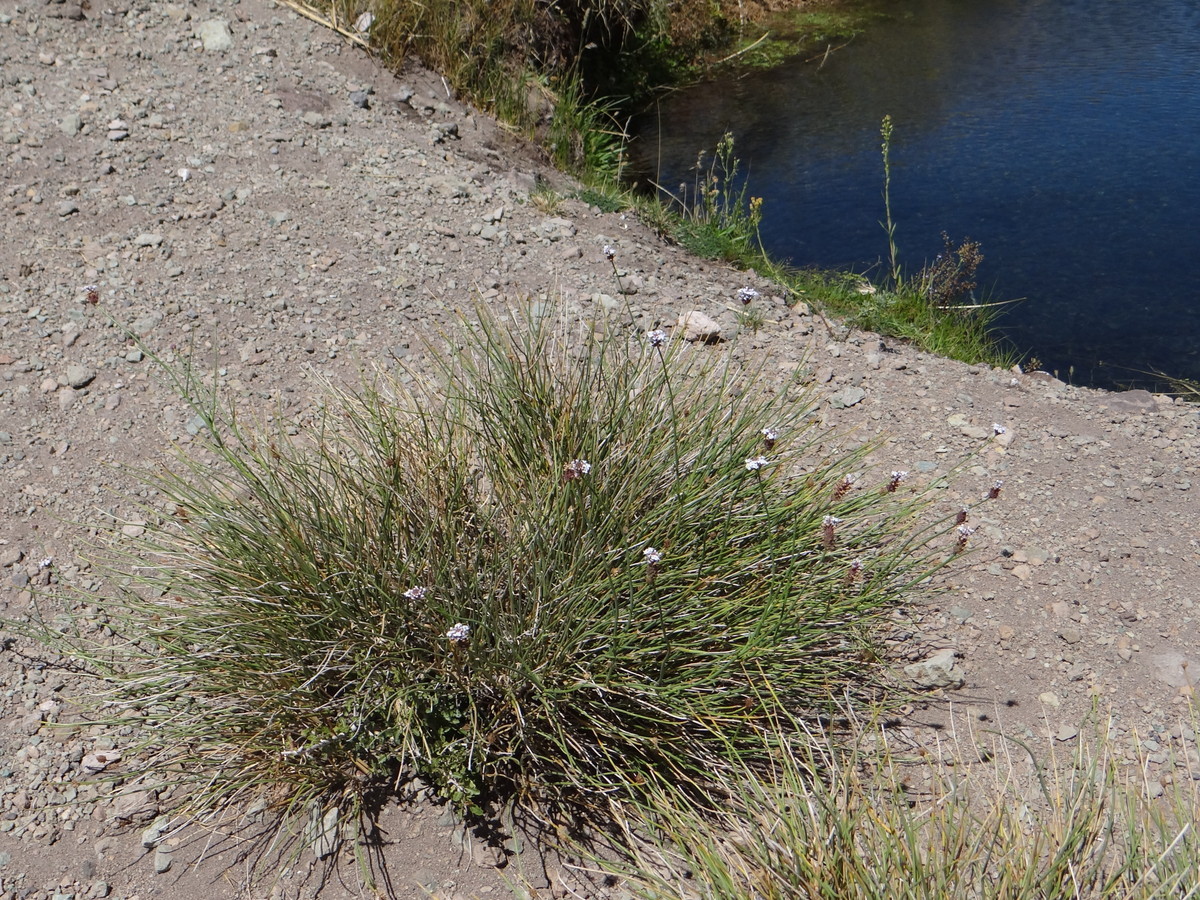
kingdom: Plantae
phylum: Tracheophyta
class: Magnoliopsida
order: Lamiales
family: Verbenaceae
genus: Junellia
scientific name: Junellia spathulata
